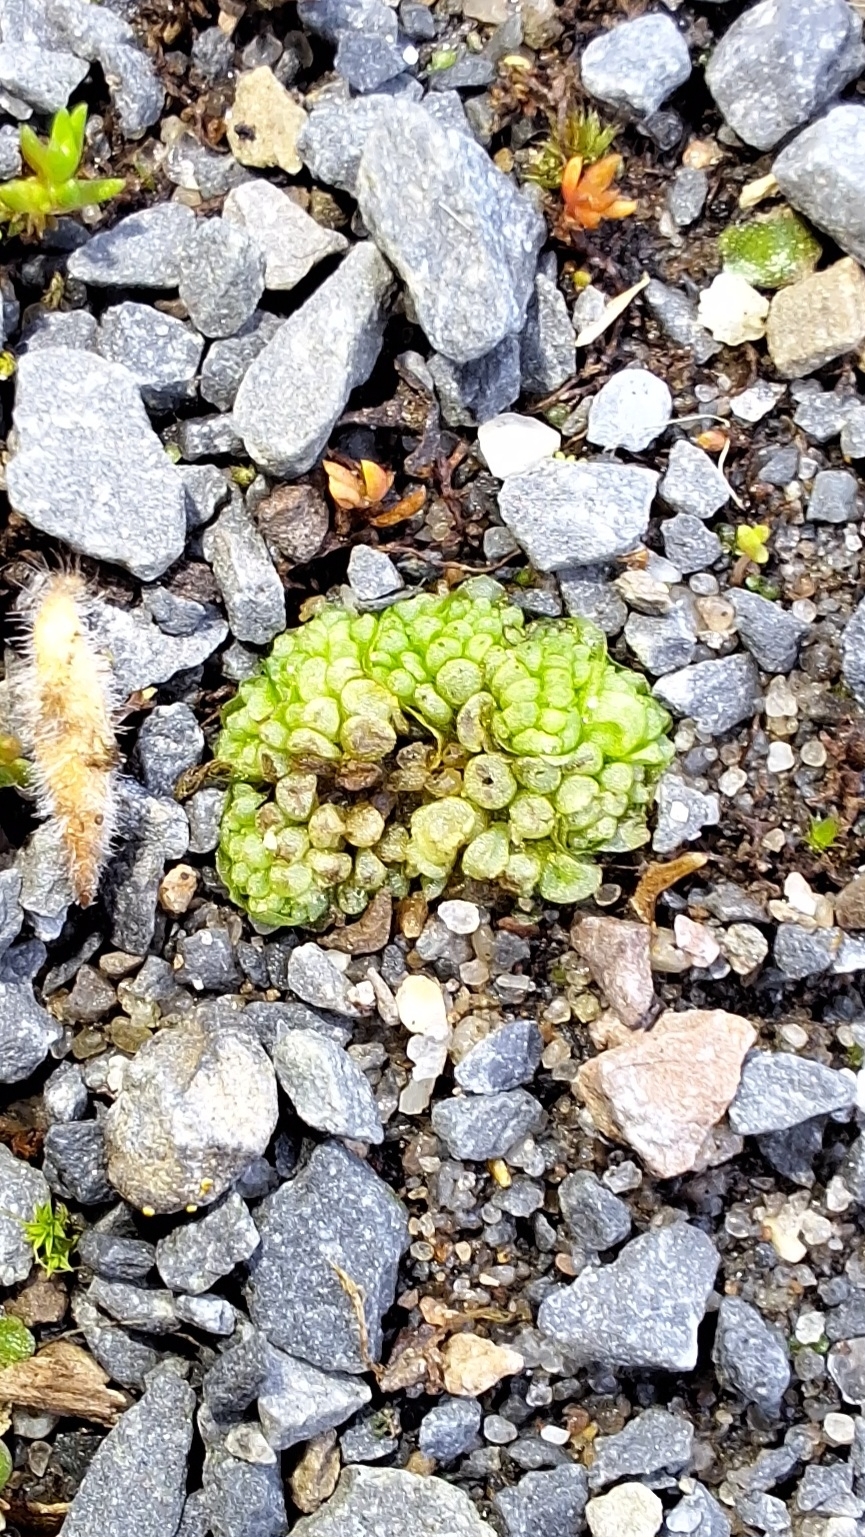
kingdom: Plantae
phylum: Marchantiophyta
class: Marchantiopsida
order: Sphaerocarpales
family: Sphaerocarpaceae
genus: Sphaerocarpos
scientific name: Sphaerocarpos texanus
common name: Texas balloonwort
